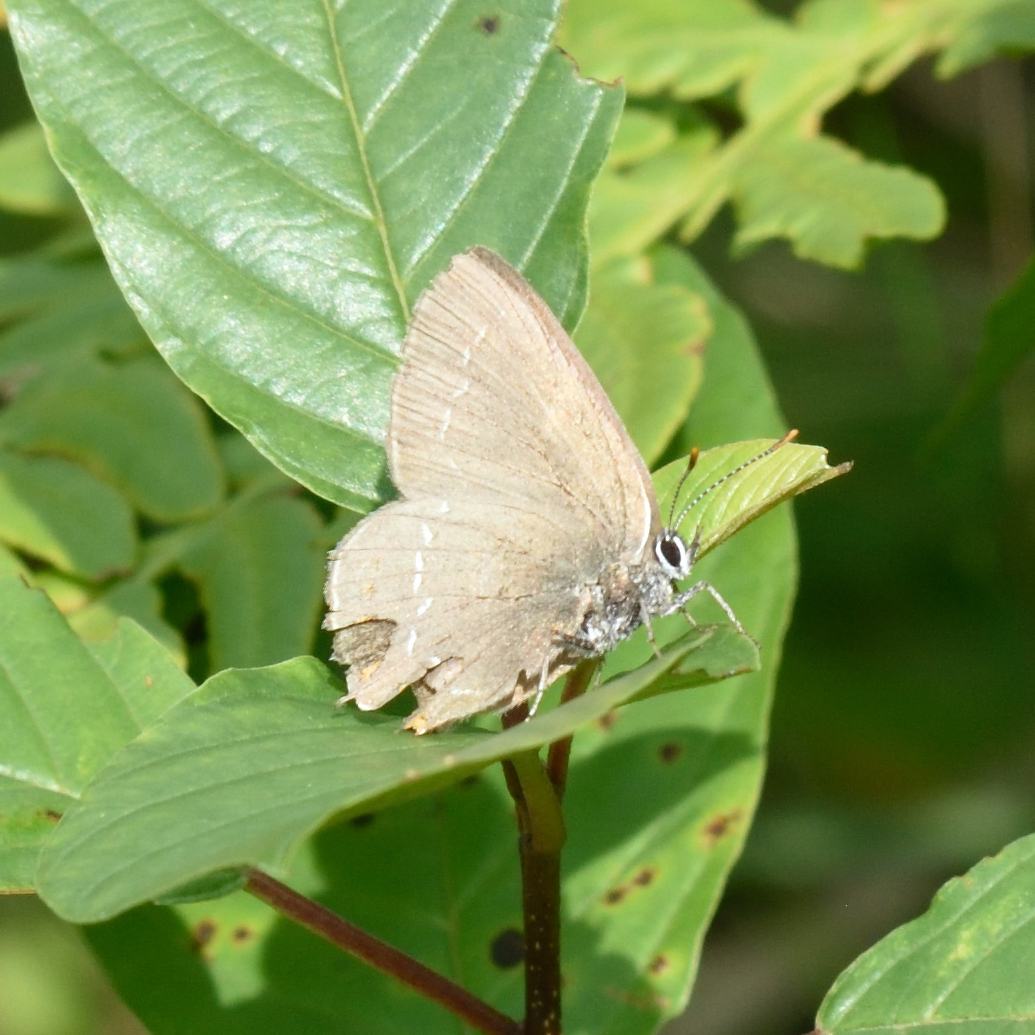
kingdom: Animalia
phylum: Arthropoda
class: Insecta
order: Lepidoptera
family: Lycaenidae
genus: Nordmannia
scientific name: Nordmannia ilicis
